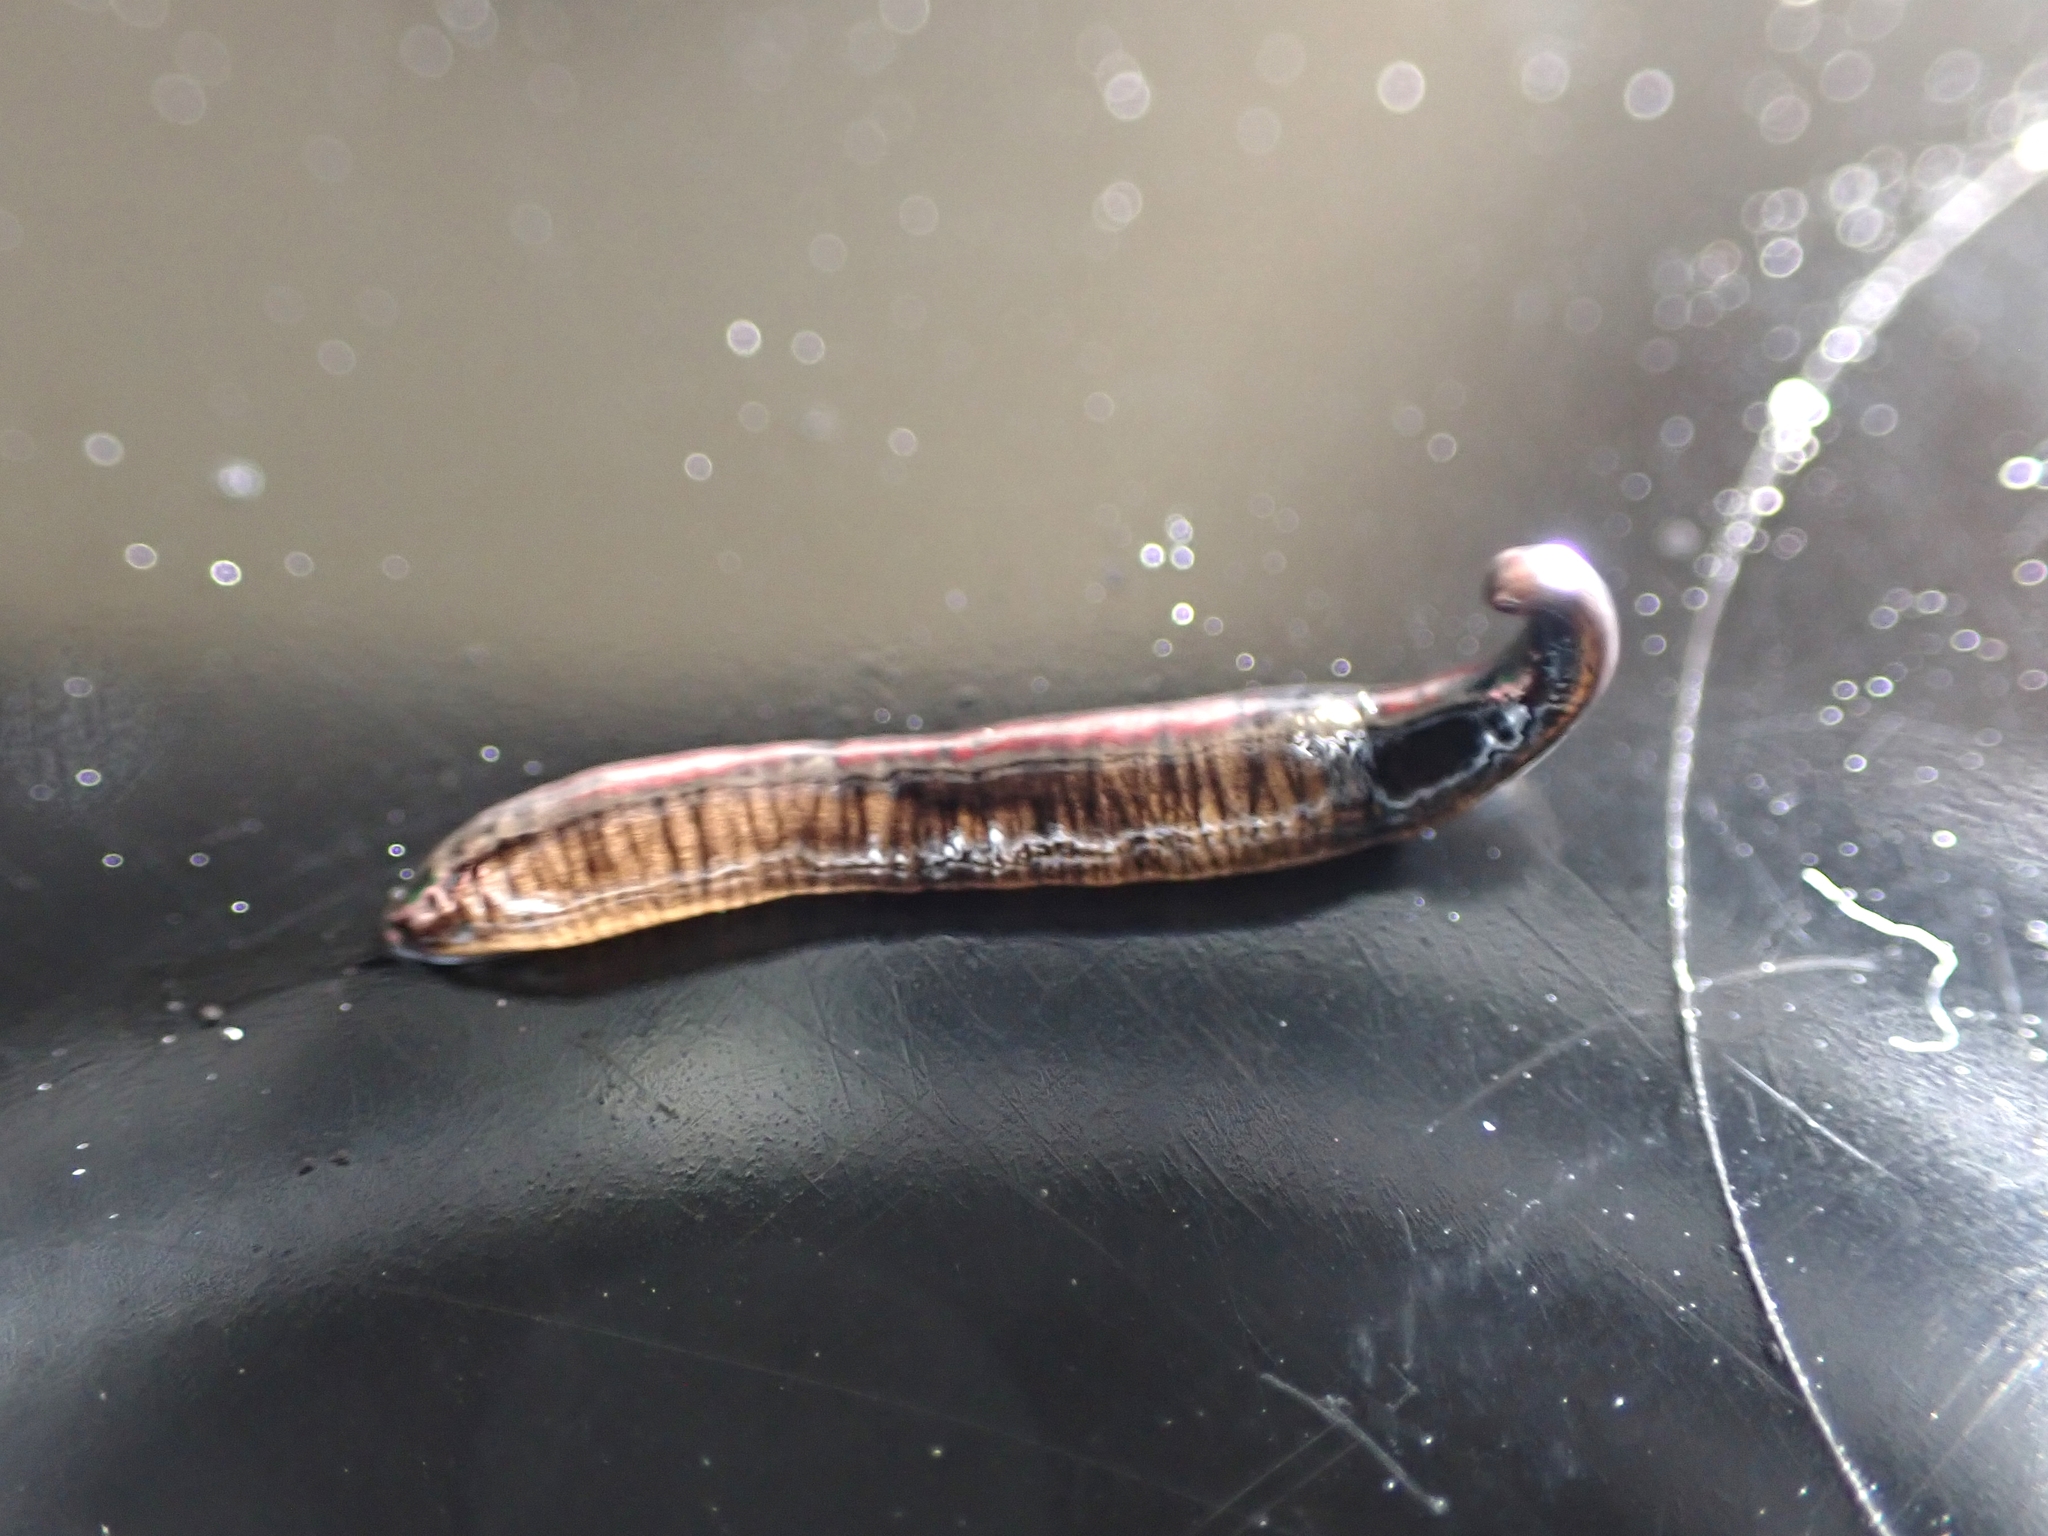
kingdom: Animalia
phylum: Platyhelminthes
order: Tricladida
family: Geoplanidae
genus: Anisorhynchodemus
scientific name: Anisorhynchodemus moseleyi
